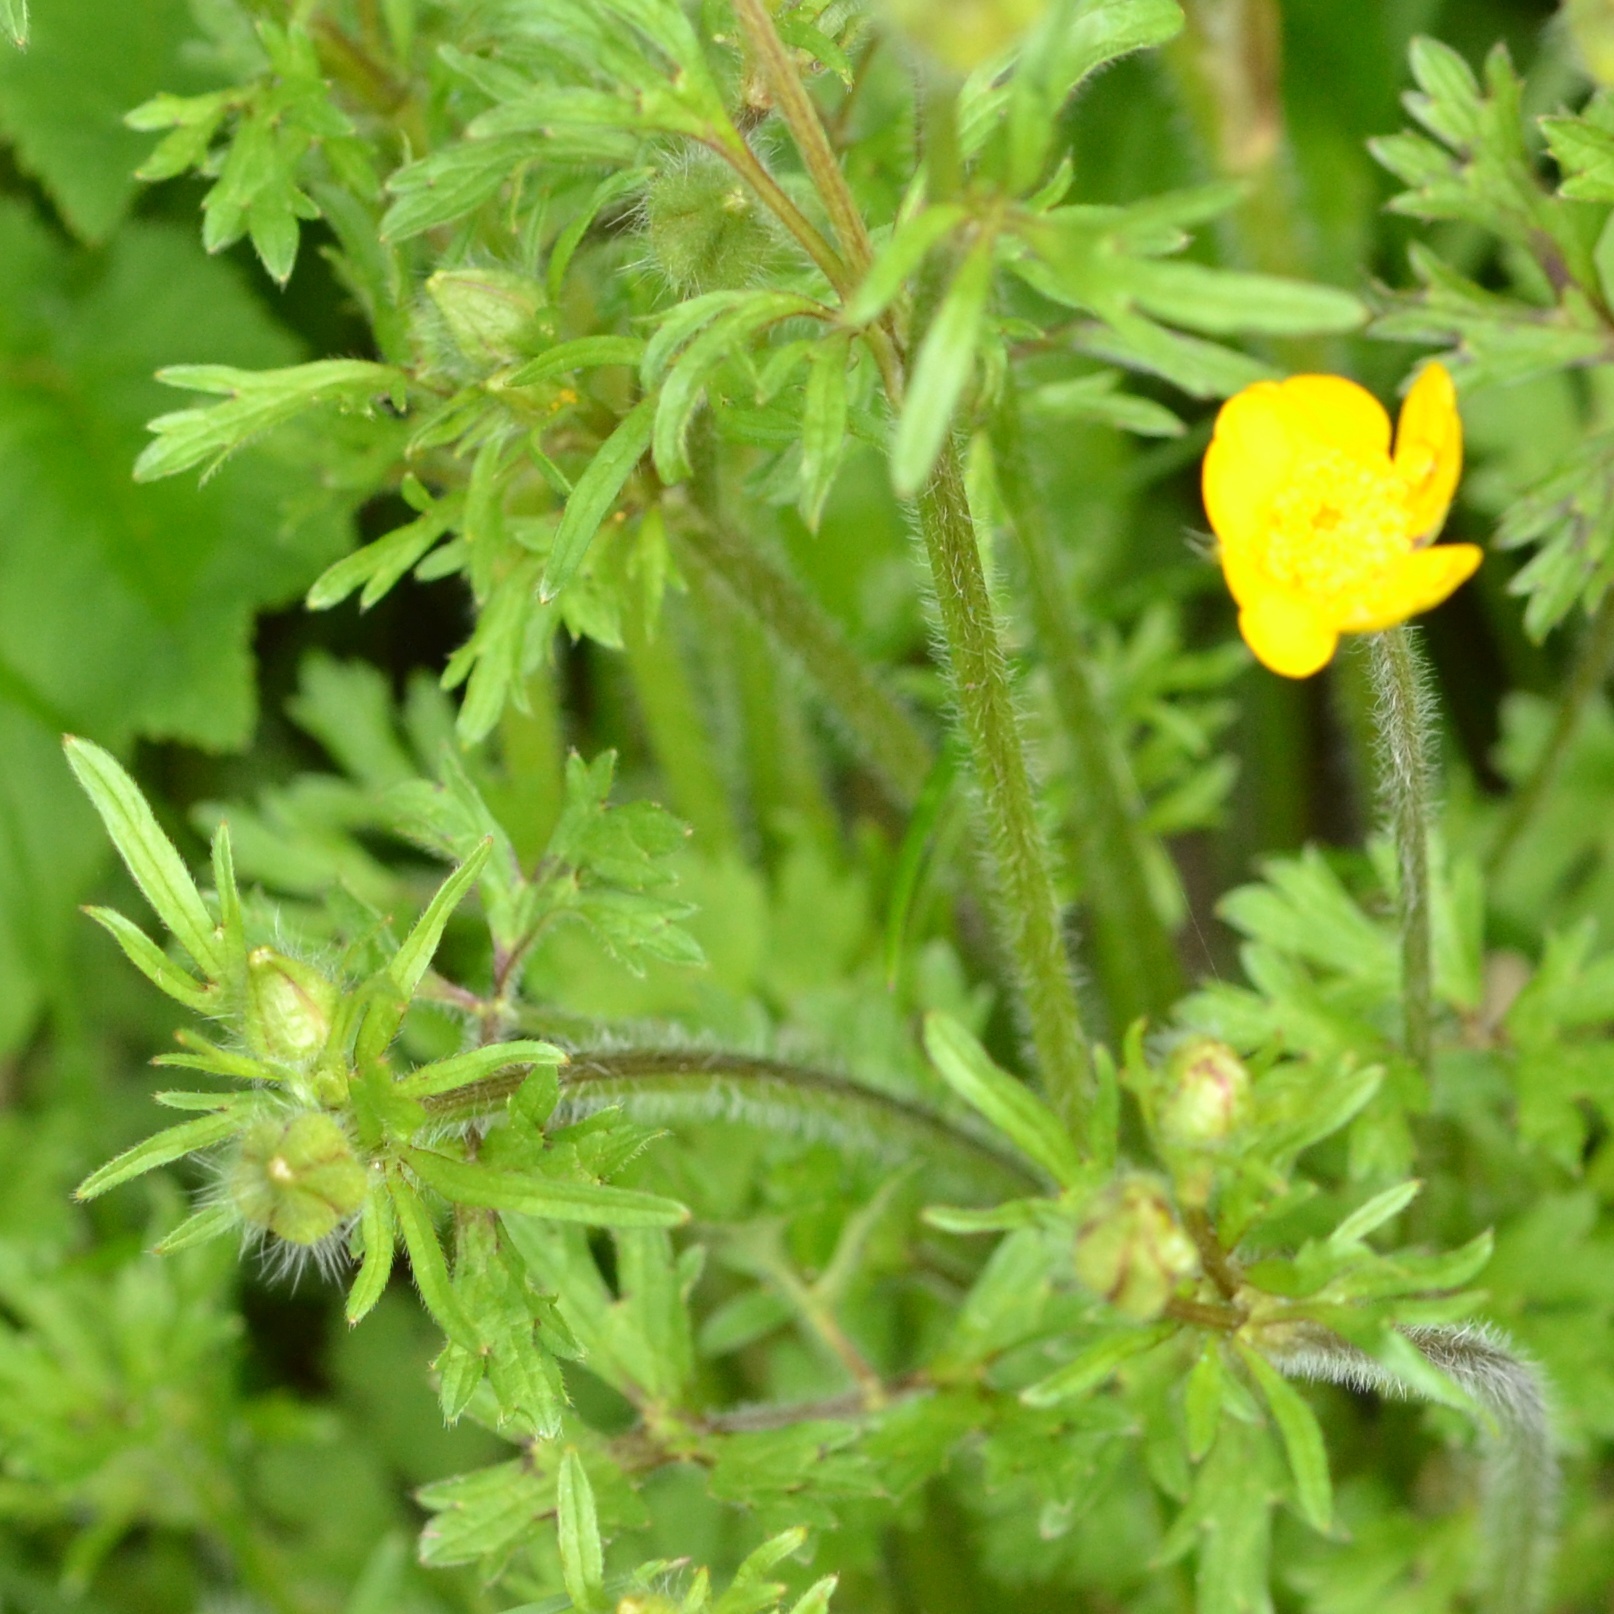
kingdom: Plantae
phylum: Tracheophyta
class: Magnoliopsida
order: Ranunculales
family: Ranunculaceae
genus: Ranunculus
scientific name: Ranunculus bulbosus
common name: Bulbous buttercup
